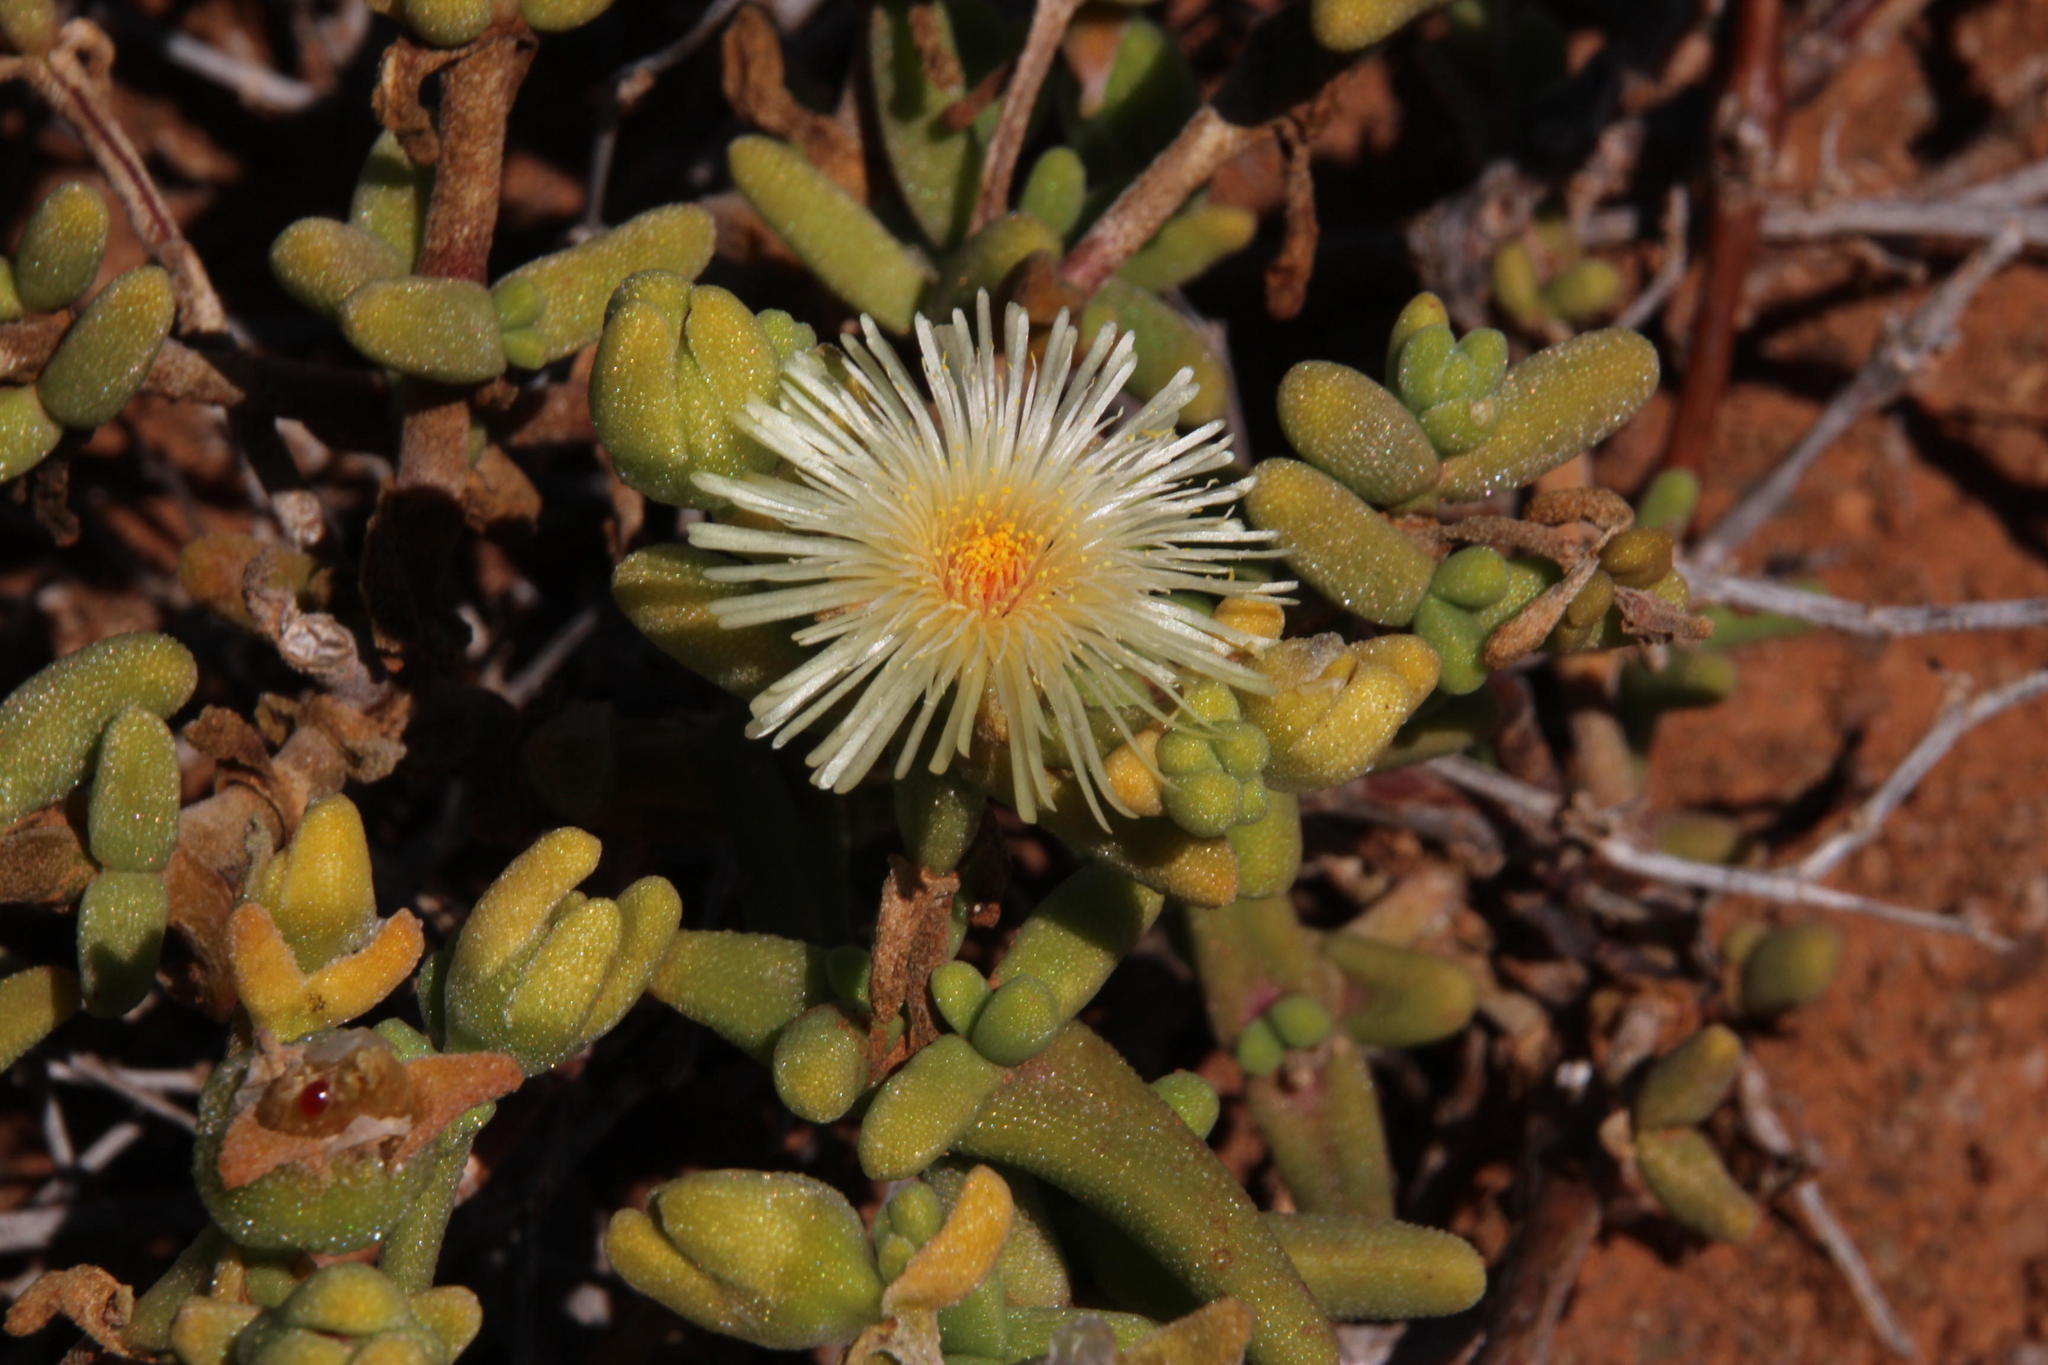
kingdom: Plantae
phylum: Tracheophyta
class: Magnoliopsida
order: Caryophyllales
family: Aizoaceae
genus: Mesembryanthemum
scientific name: Mesembryanthemum nitidum
